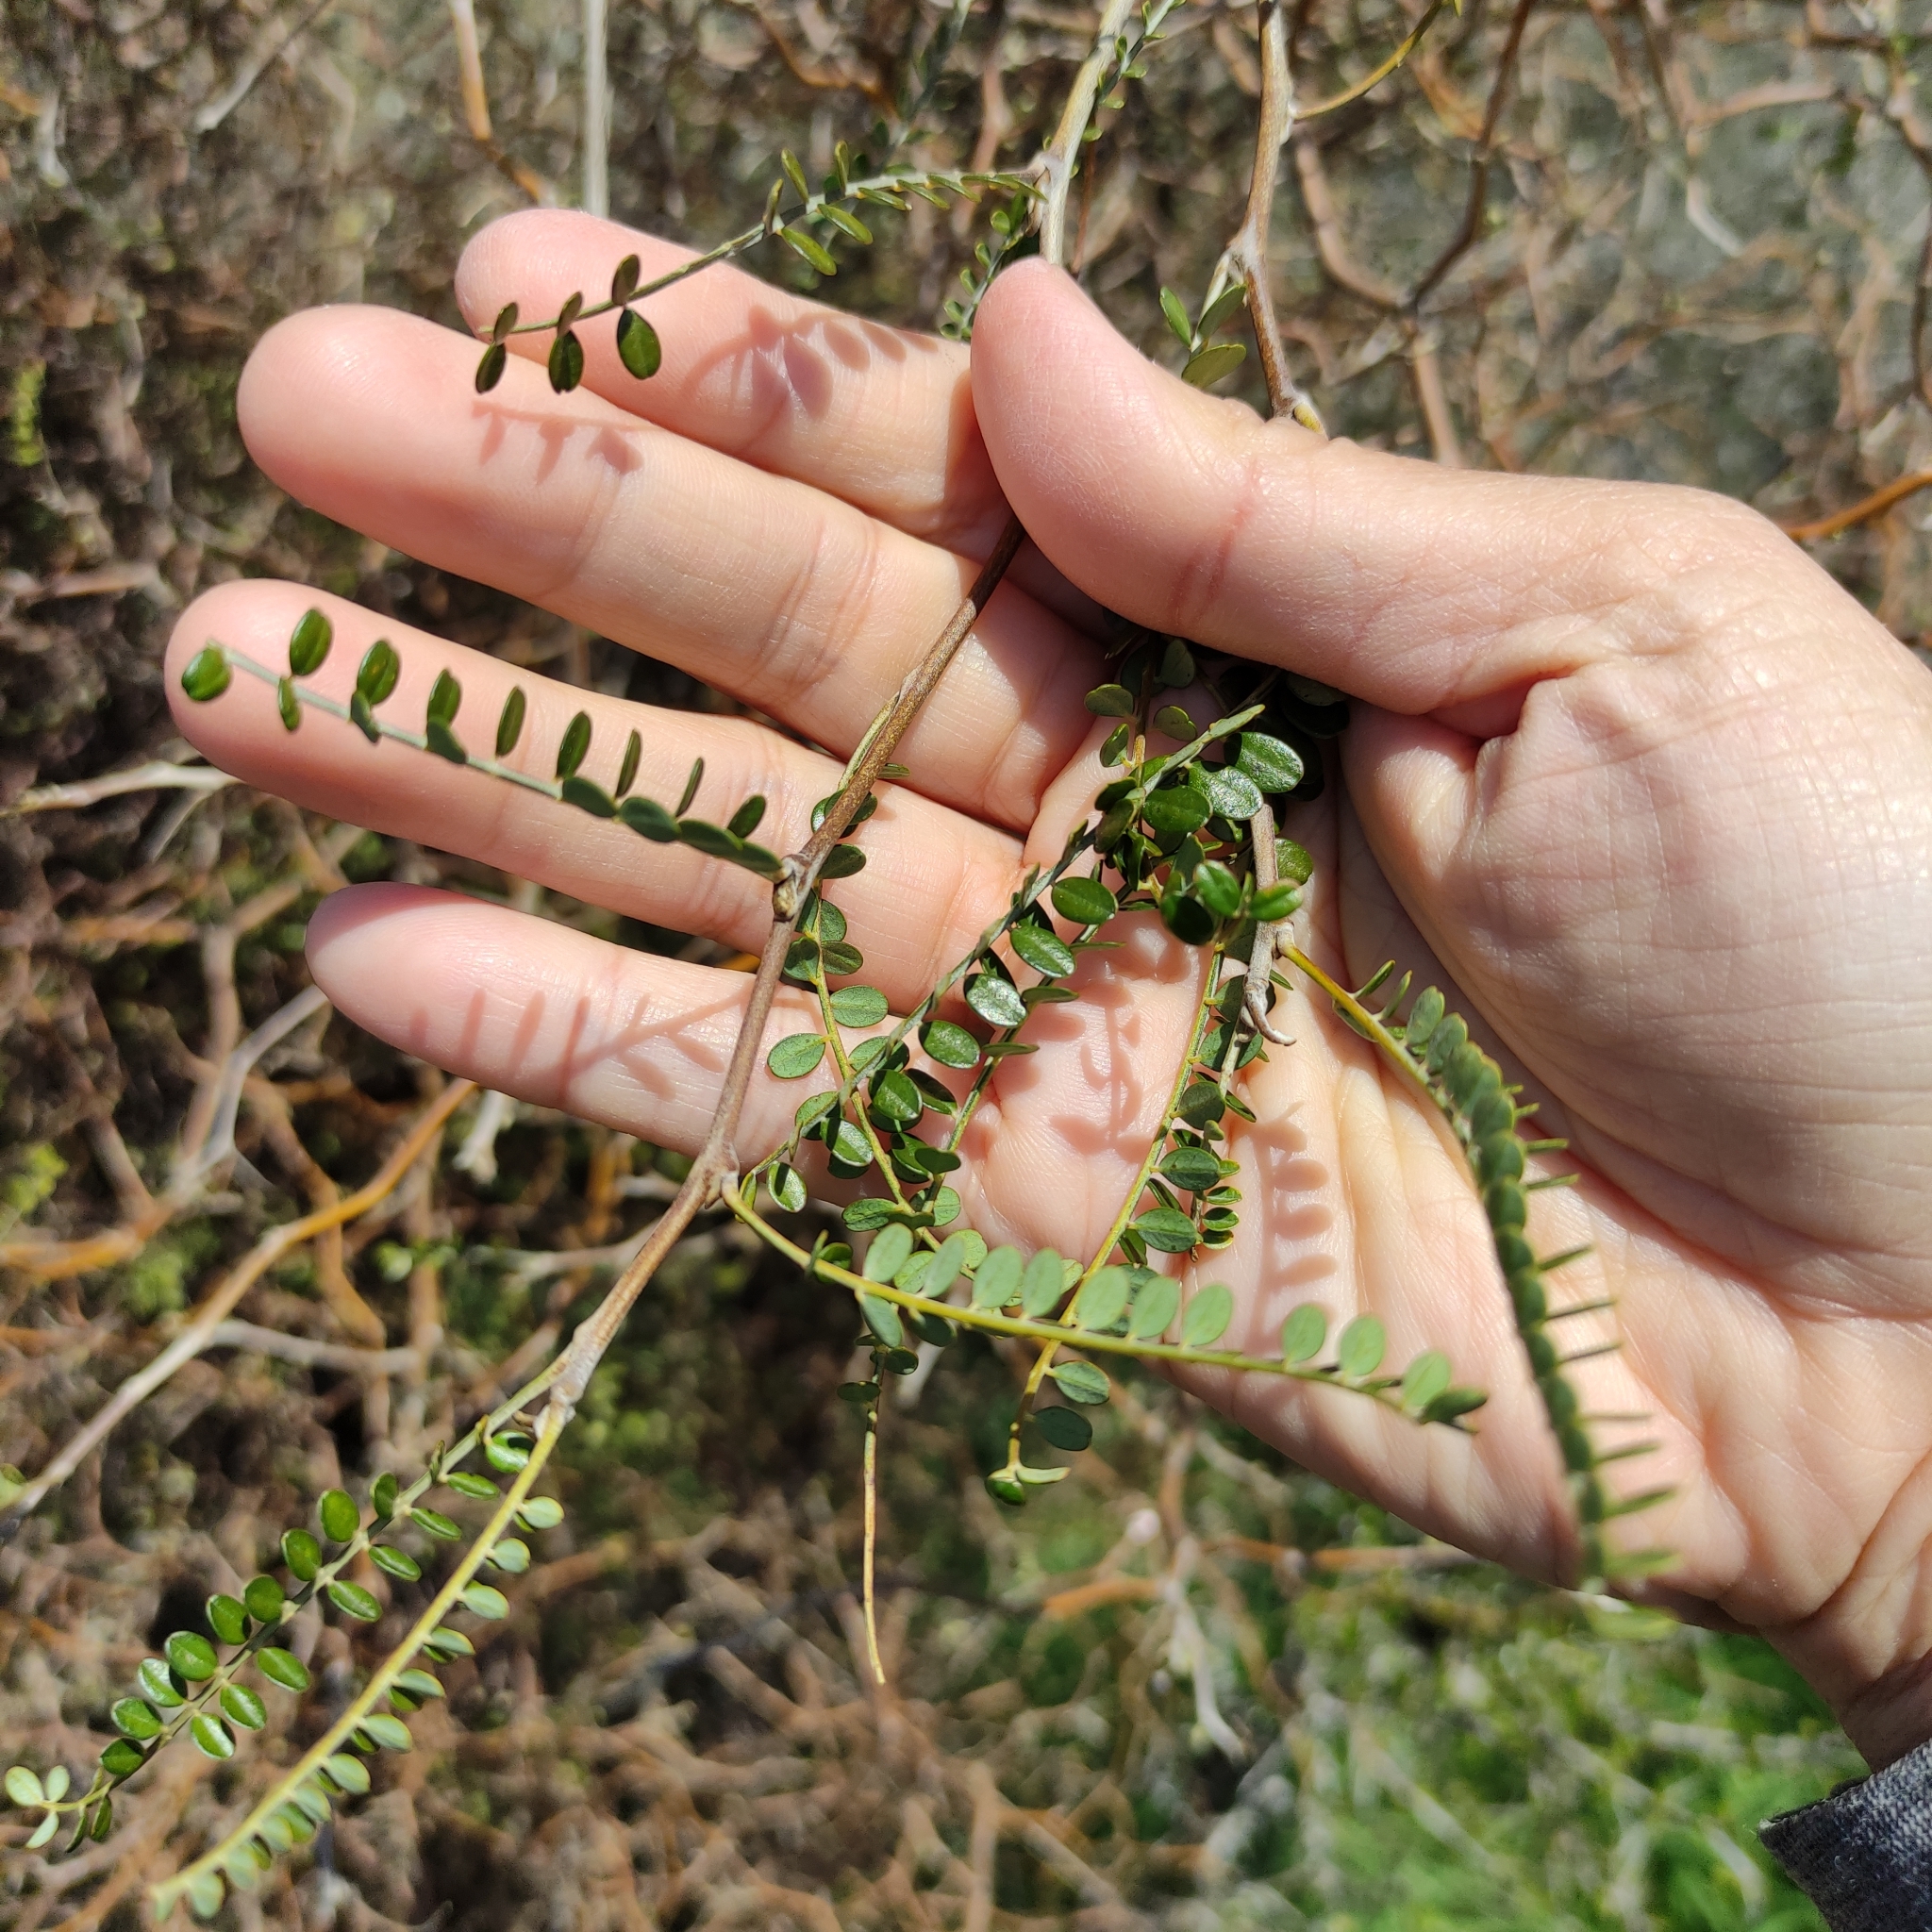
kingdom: Plantae
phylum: Tracheophyta
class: Magnoliopsida
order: Fabales
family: Fabaceae
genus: Sophora
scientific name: Sophora microphylla
